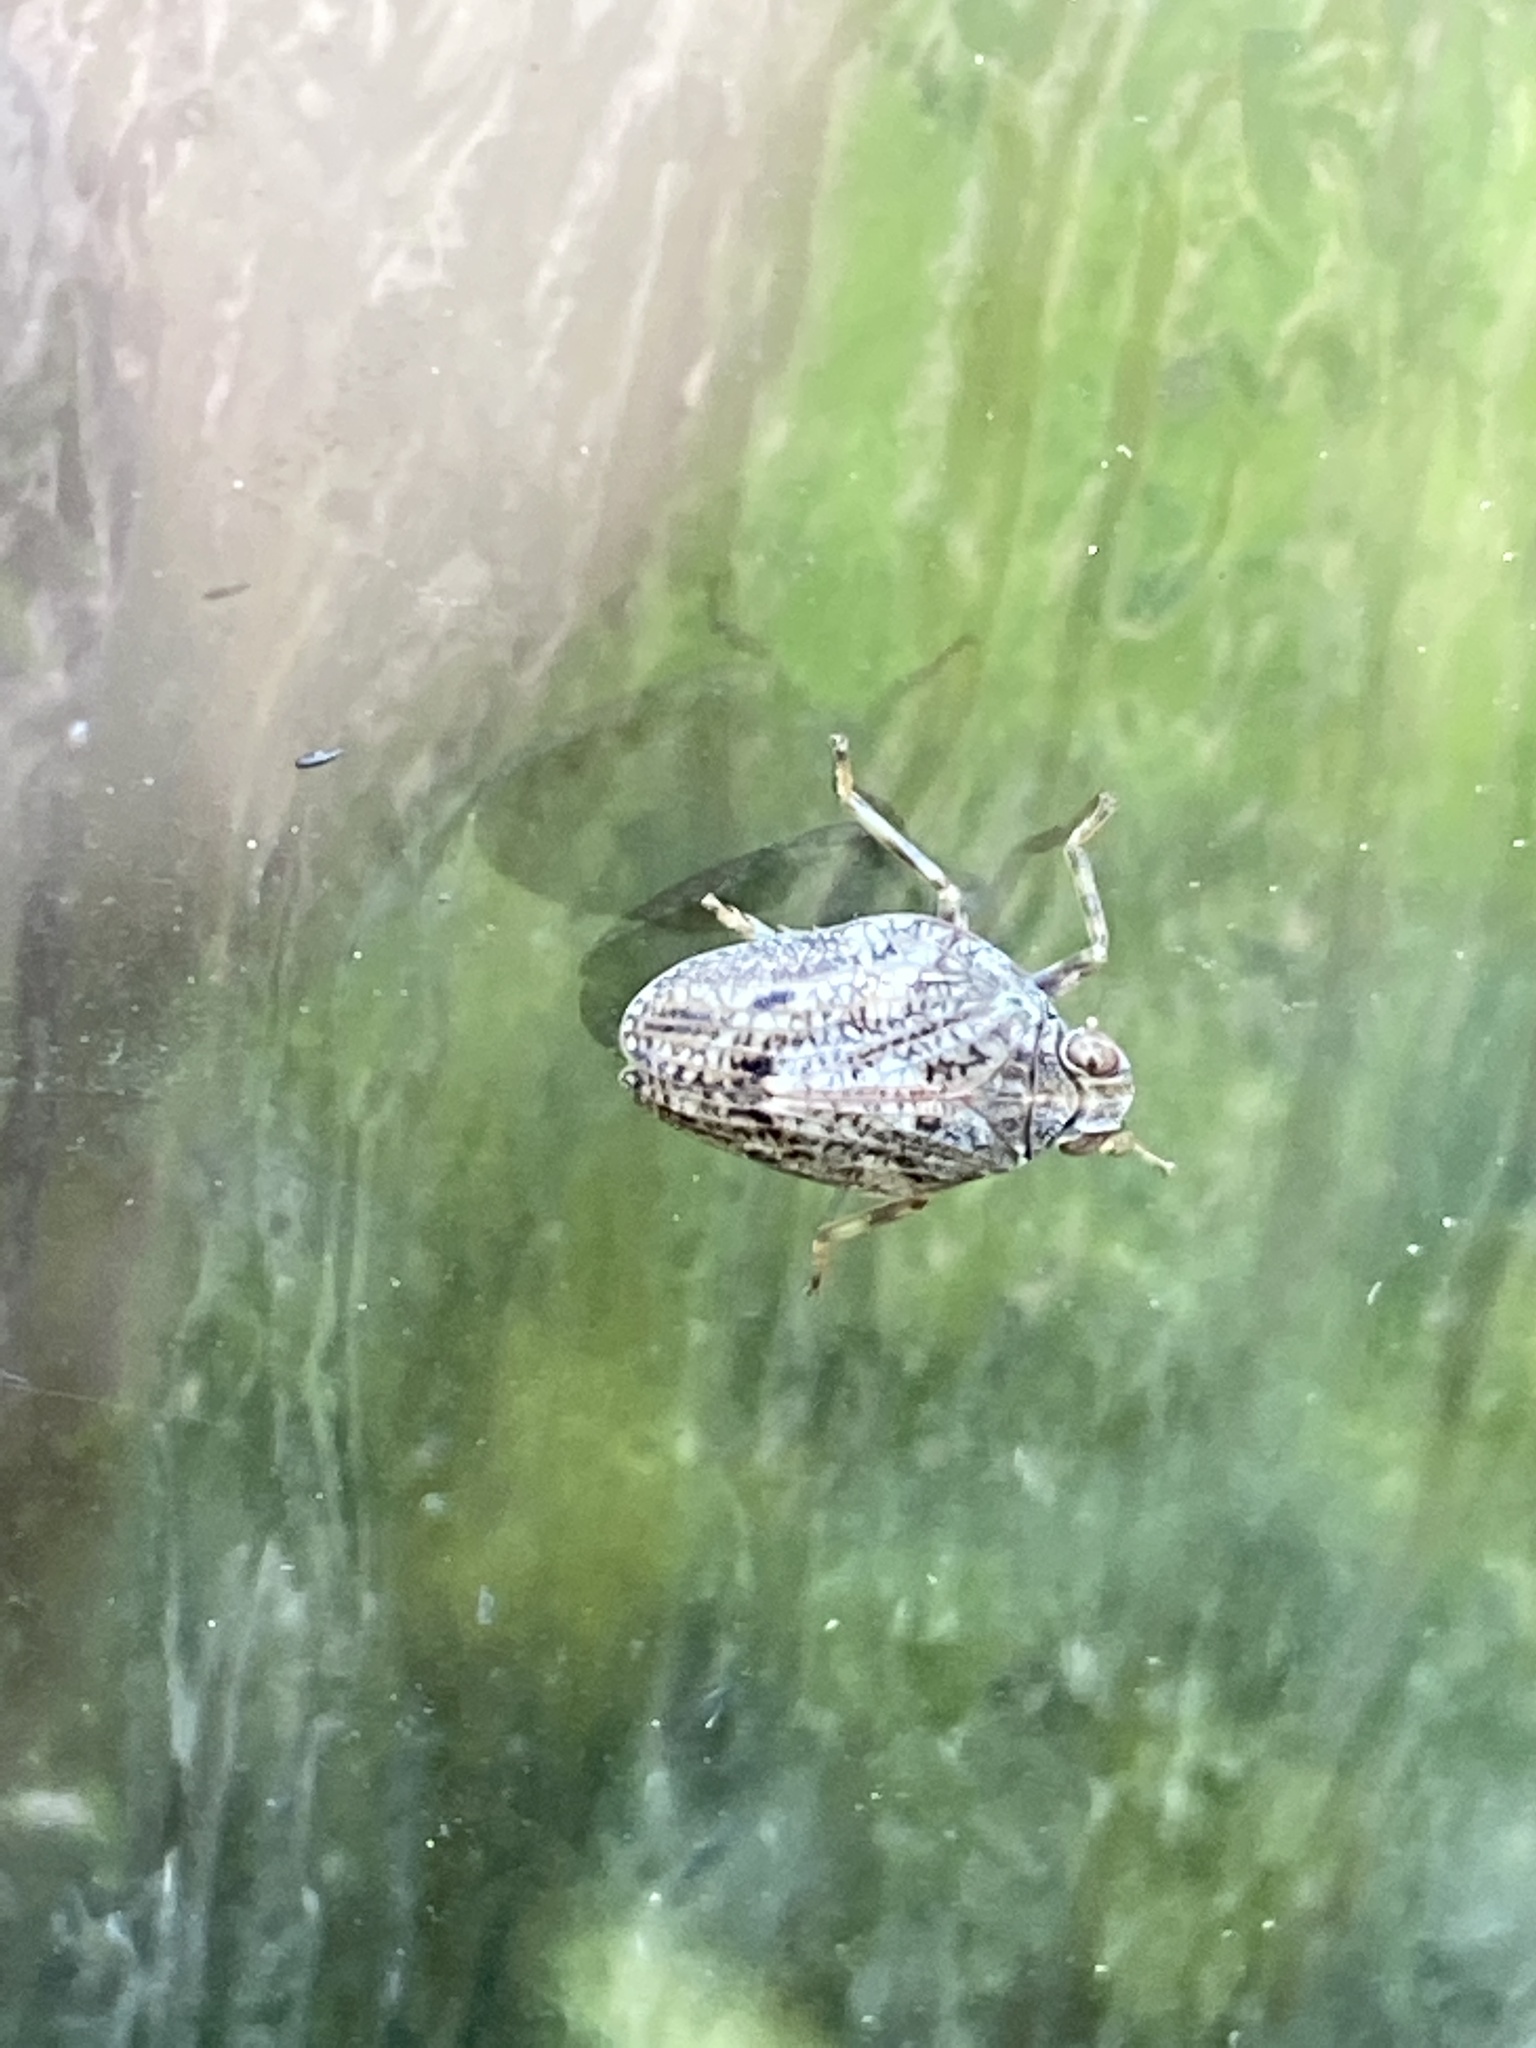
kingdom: Animalia
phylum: Arthropoda
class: Insecta
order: Hemiptera
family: Issidae
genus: Issus
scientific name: Issus coleoptratus
